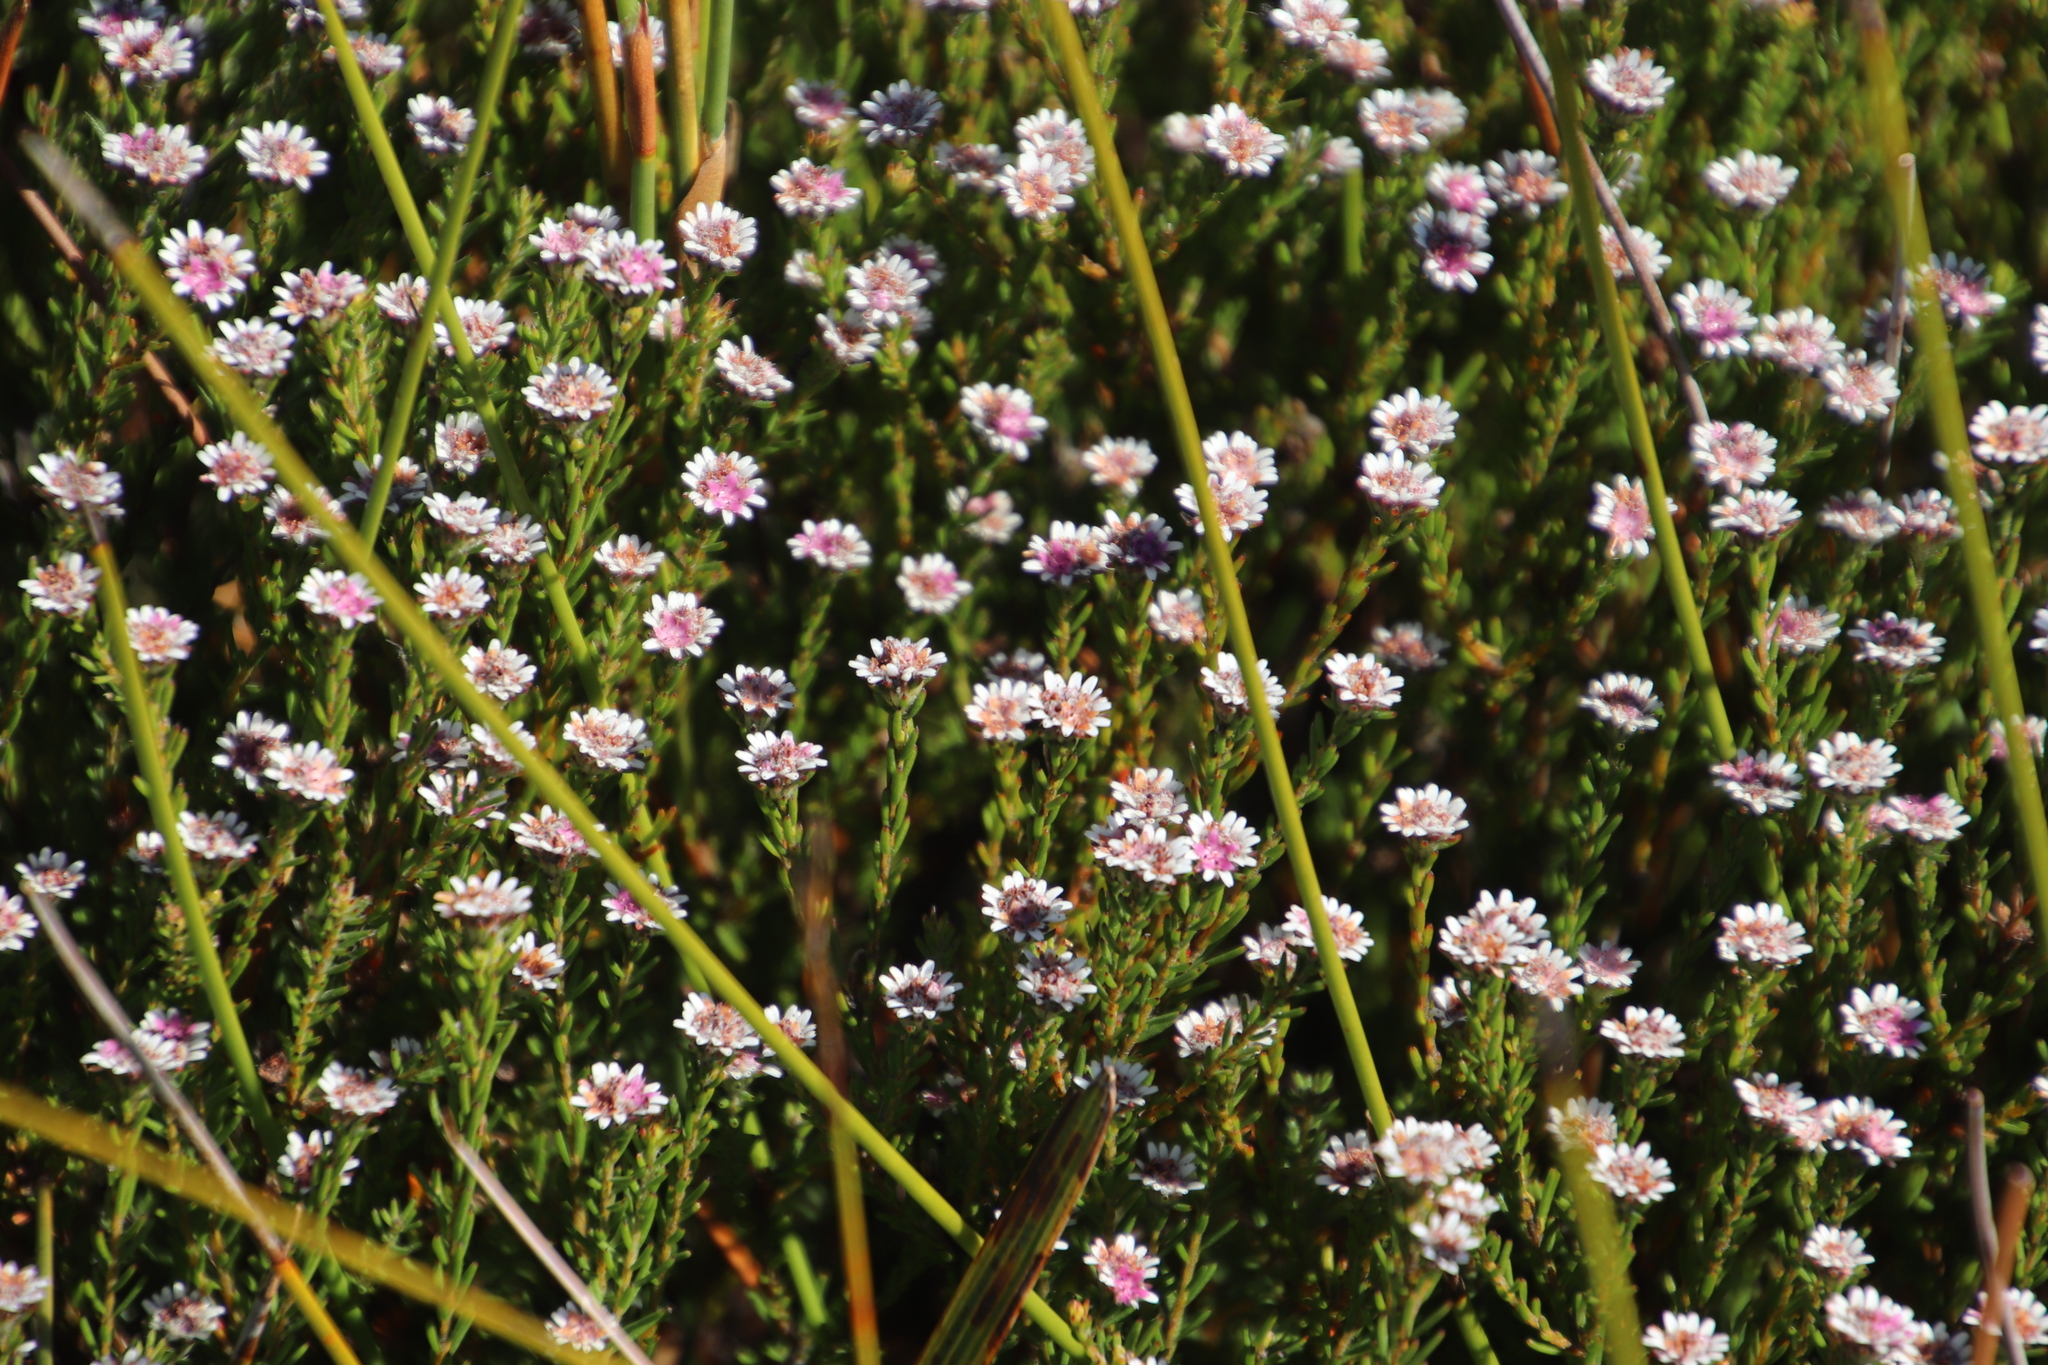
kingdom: Plantae
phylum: Tracheophyta
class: Magnoliopsida
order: Bruniales
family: Bruniaceae
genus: Staavia
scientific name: Staavia radiata
